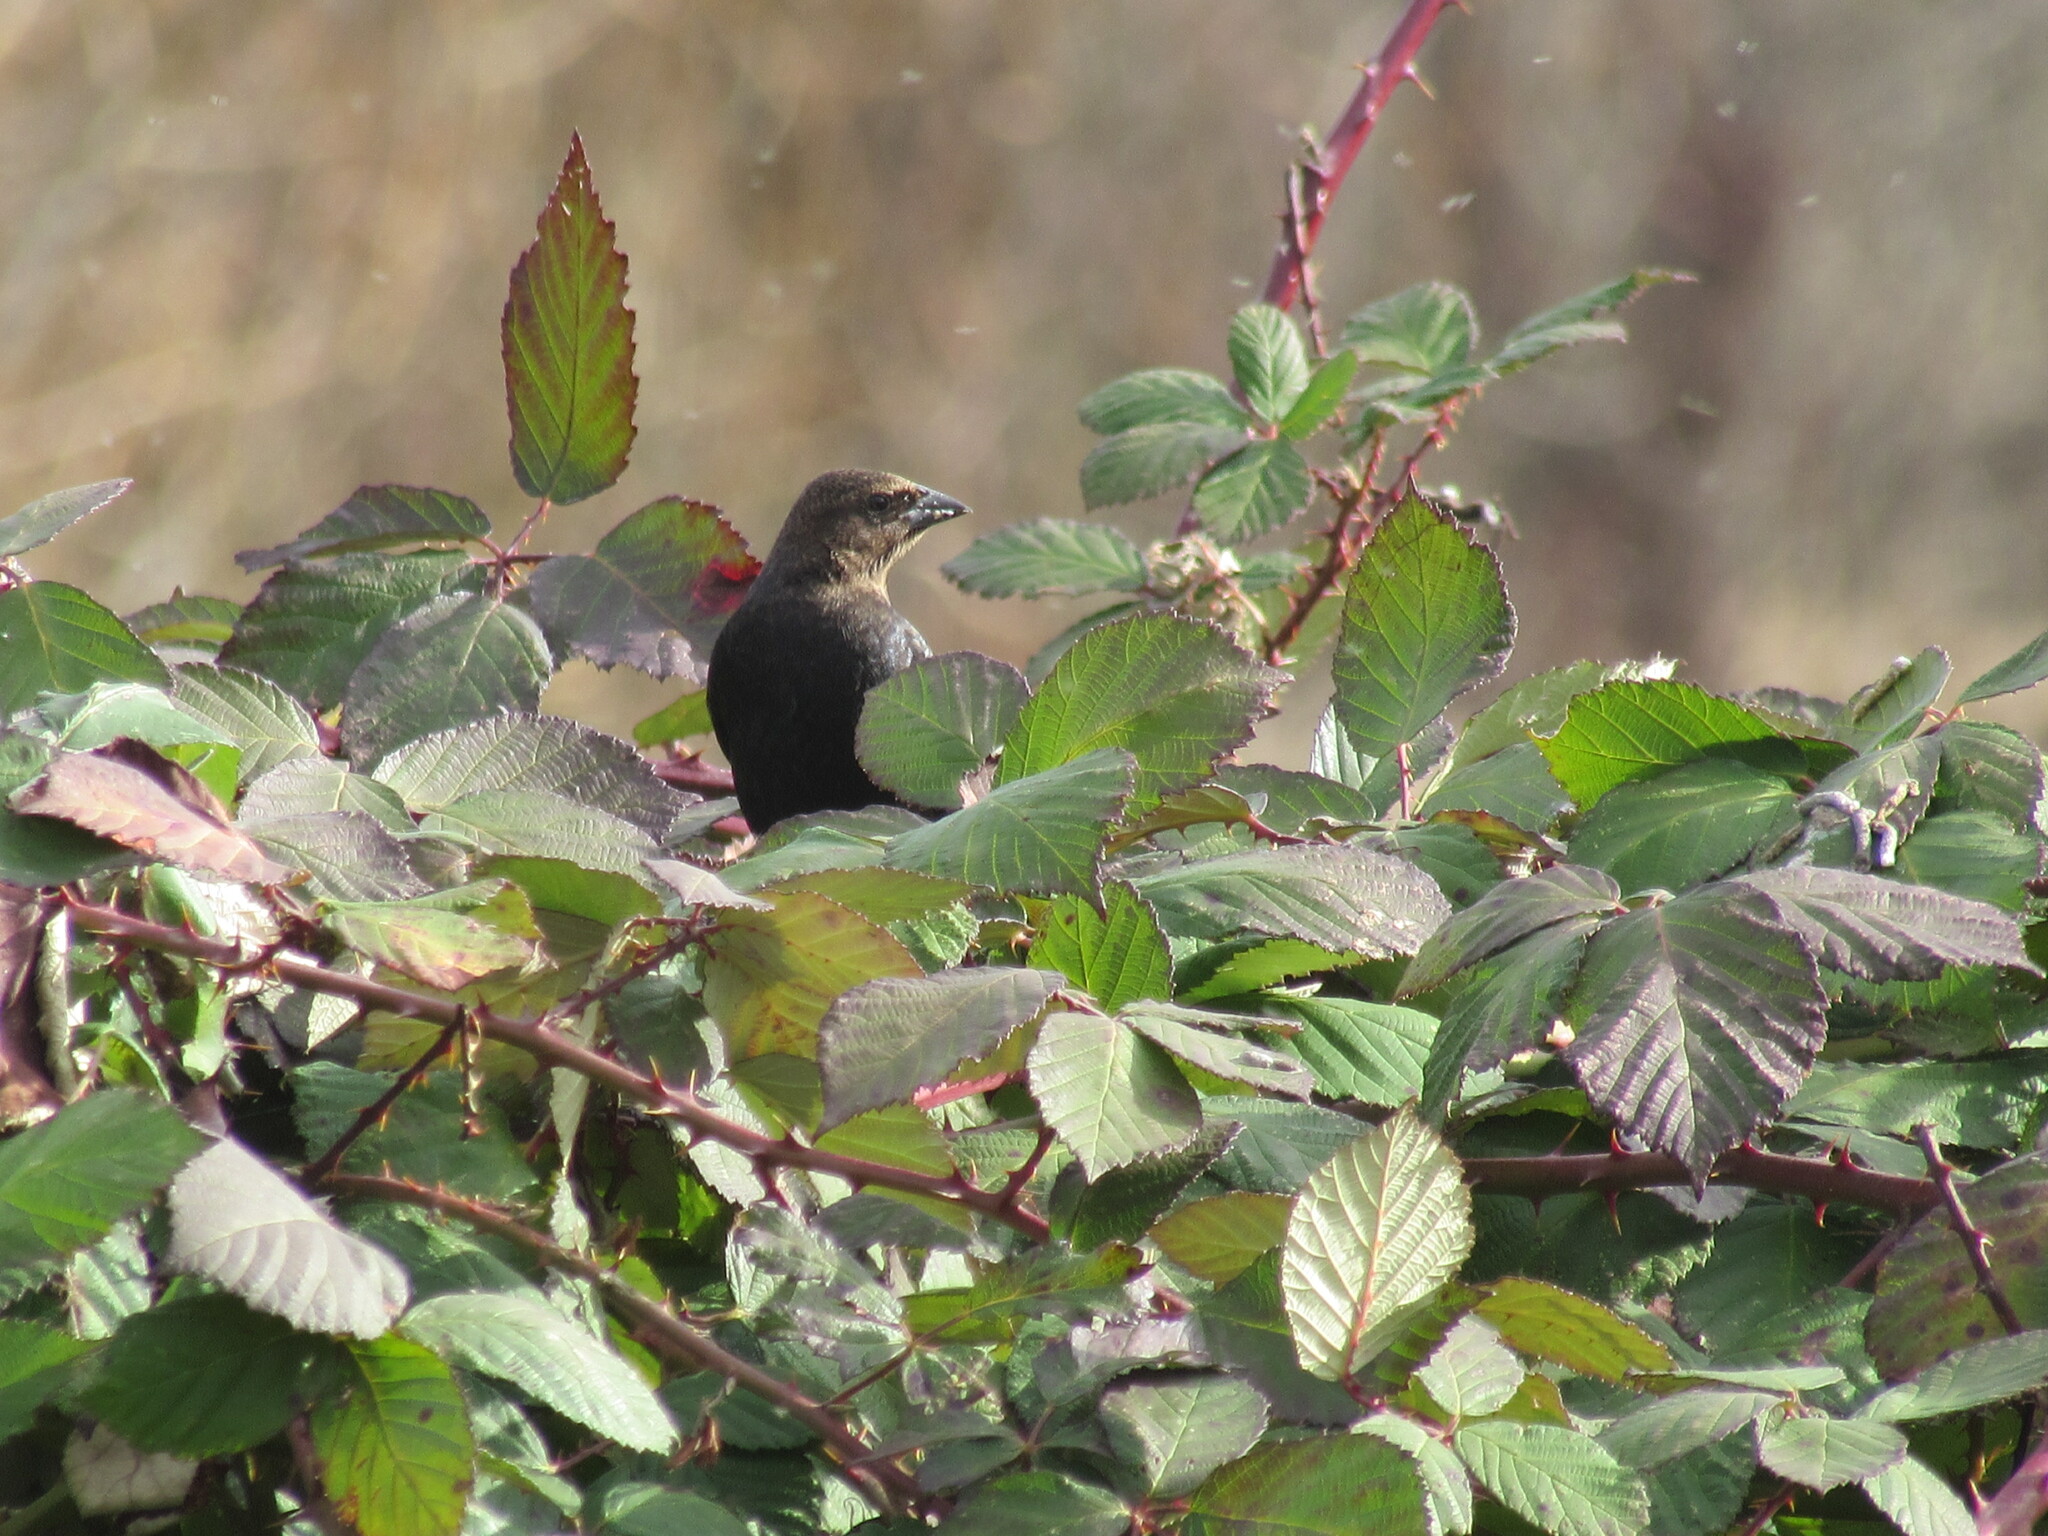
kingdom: Animalia
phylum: Chordata
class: Aves
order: Passeriformes
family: Icteridae
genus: Molothrus
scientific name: Molothrus ater
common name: Brown-headed cowbird
